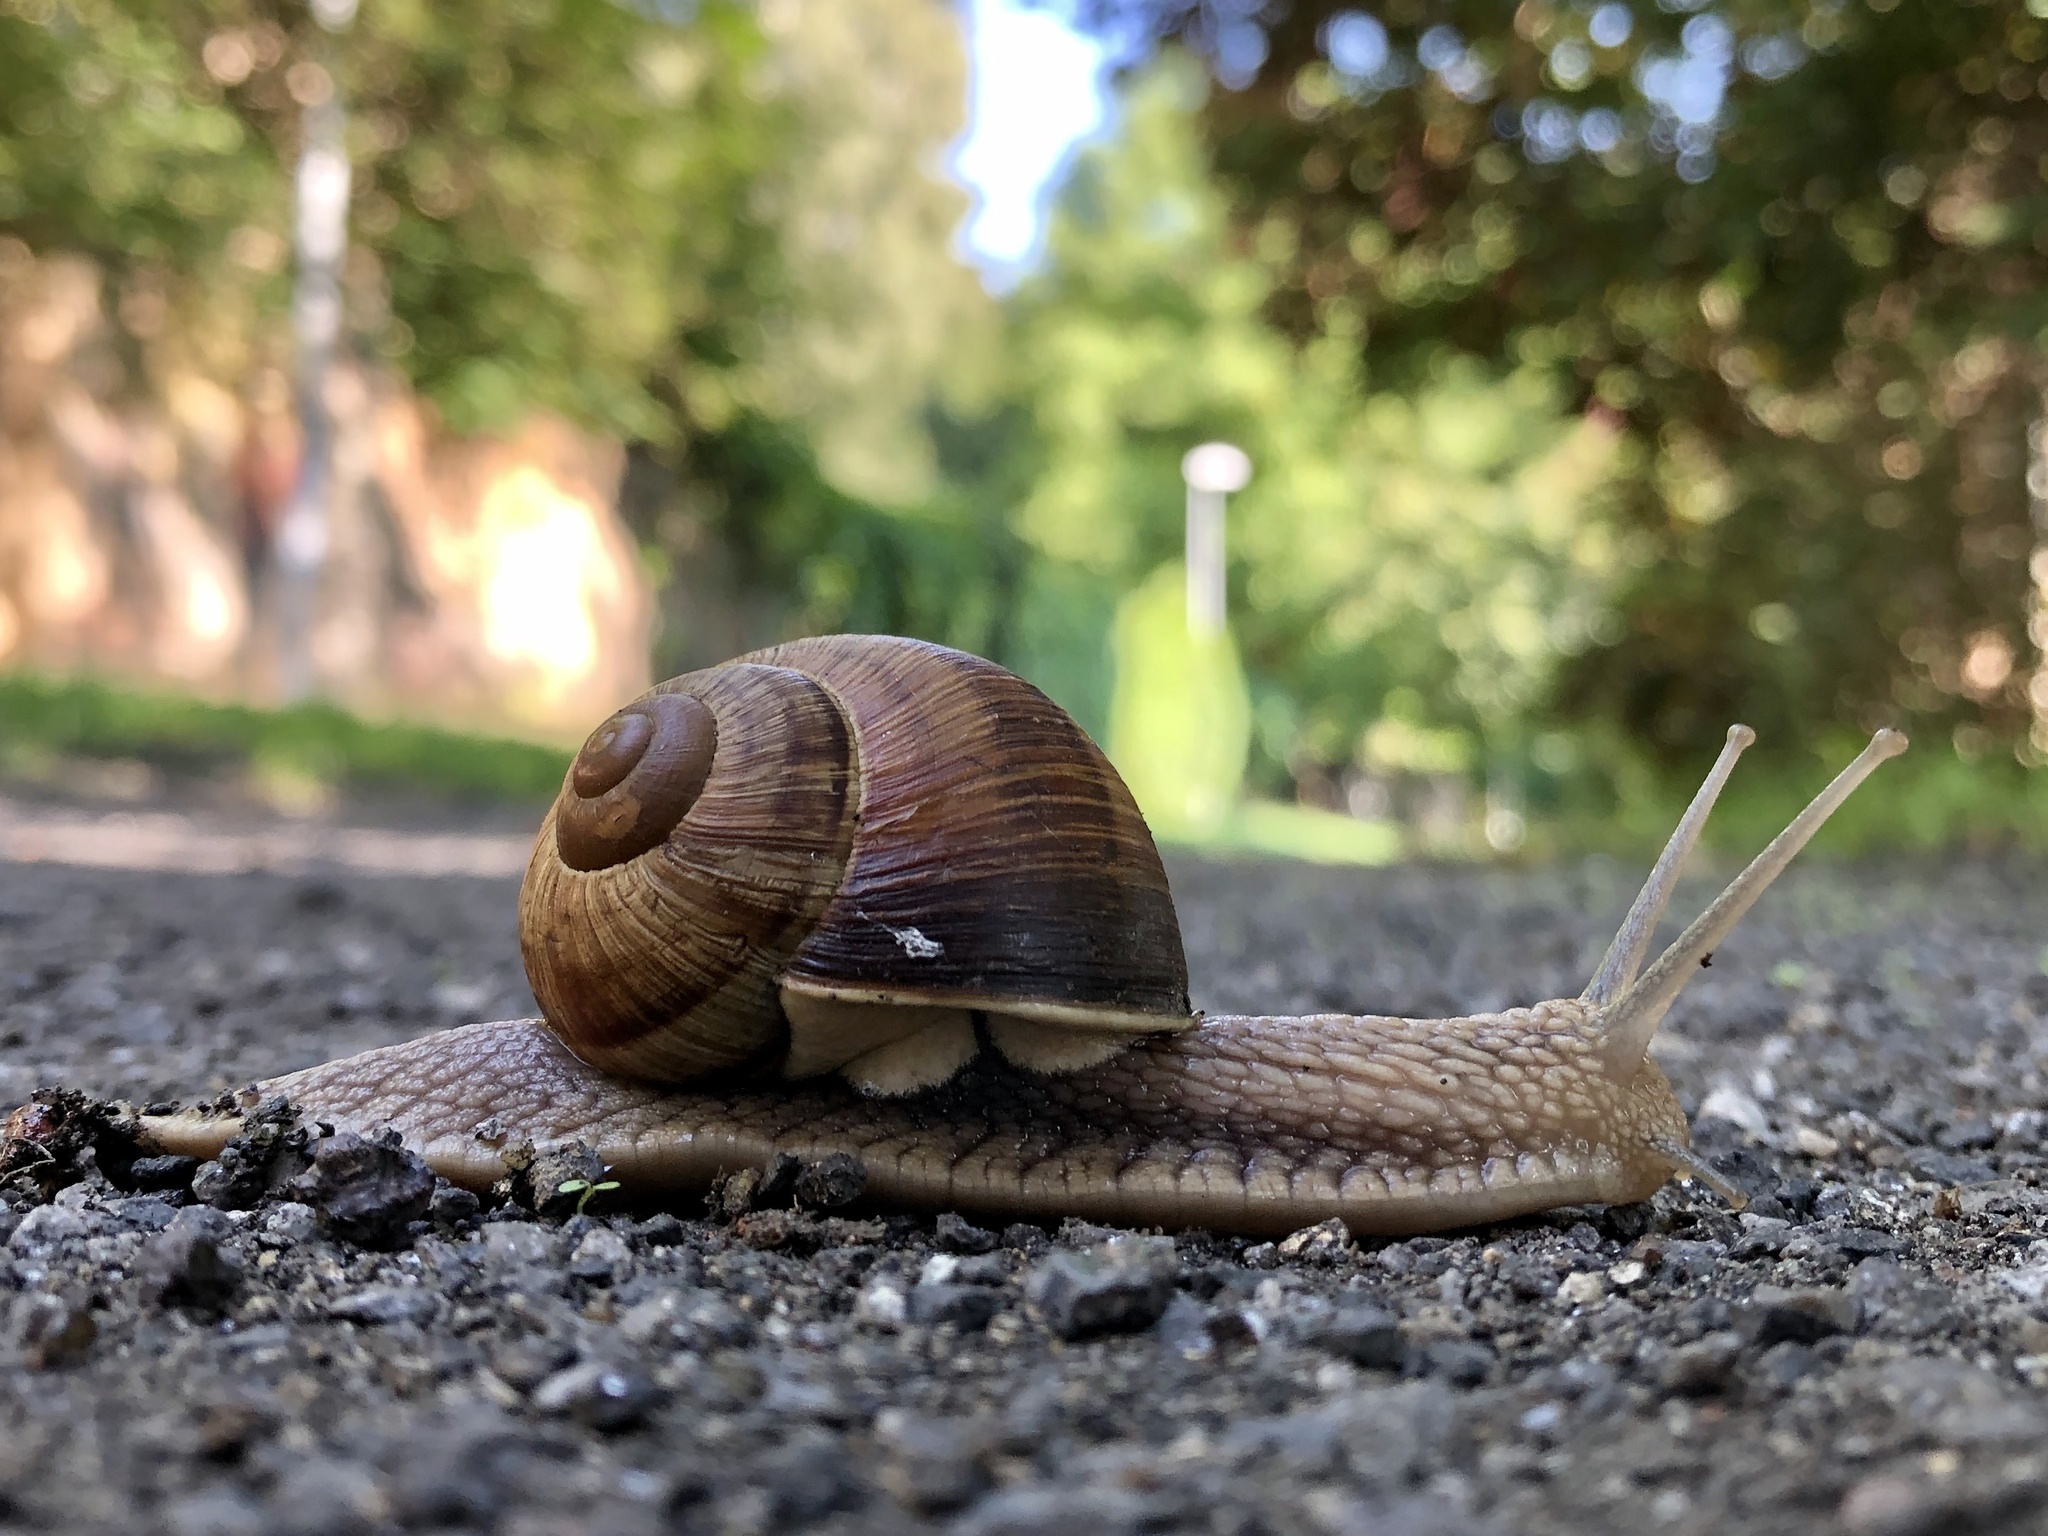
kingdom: Animalia
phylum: Mollusca
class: Gastropoda
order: Stylommatophora
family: Helicidae
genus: Helix
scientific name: Helix pomatia
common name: Roman snail
